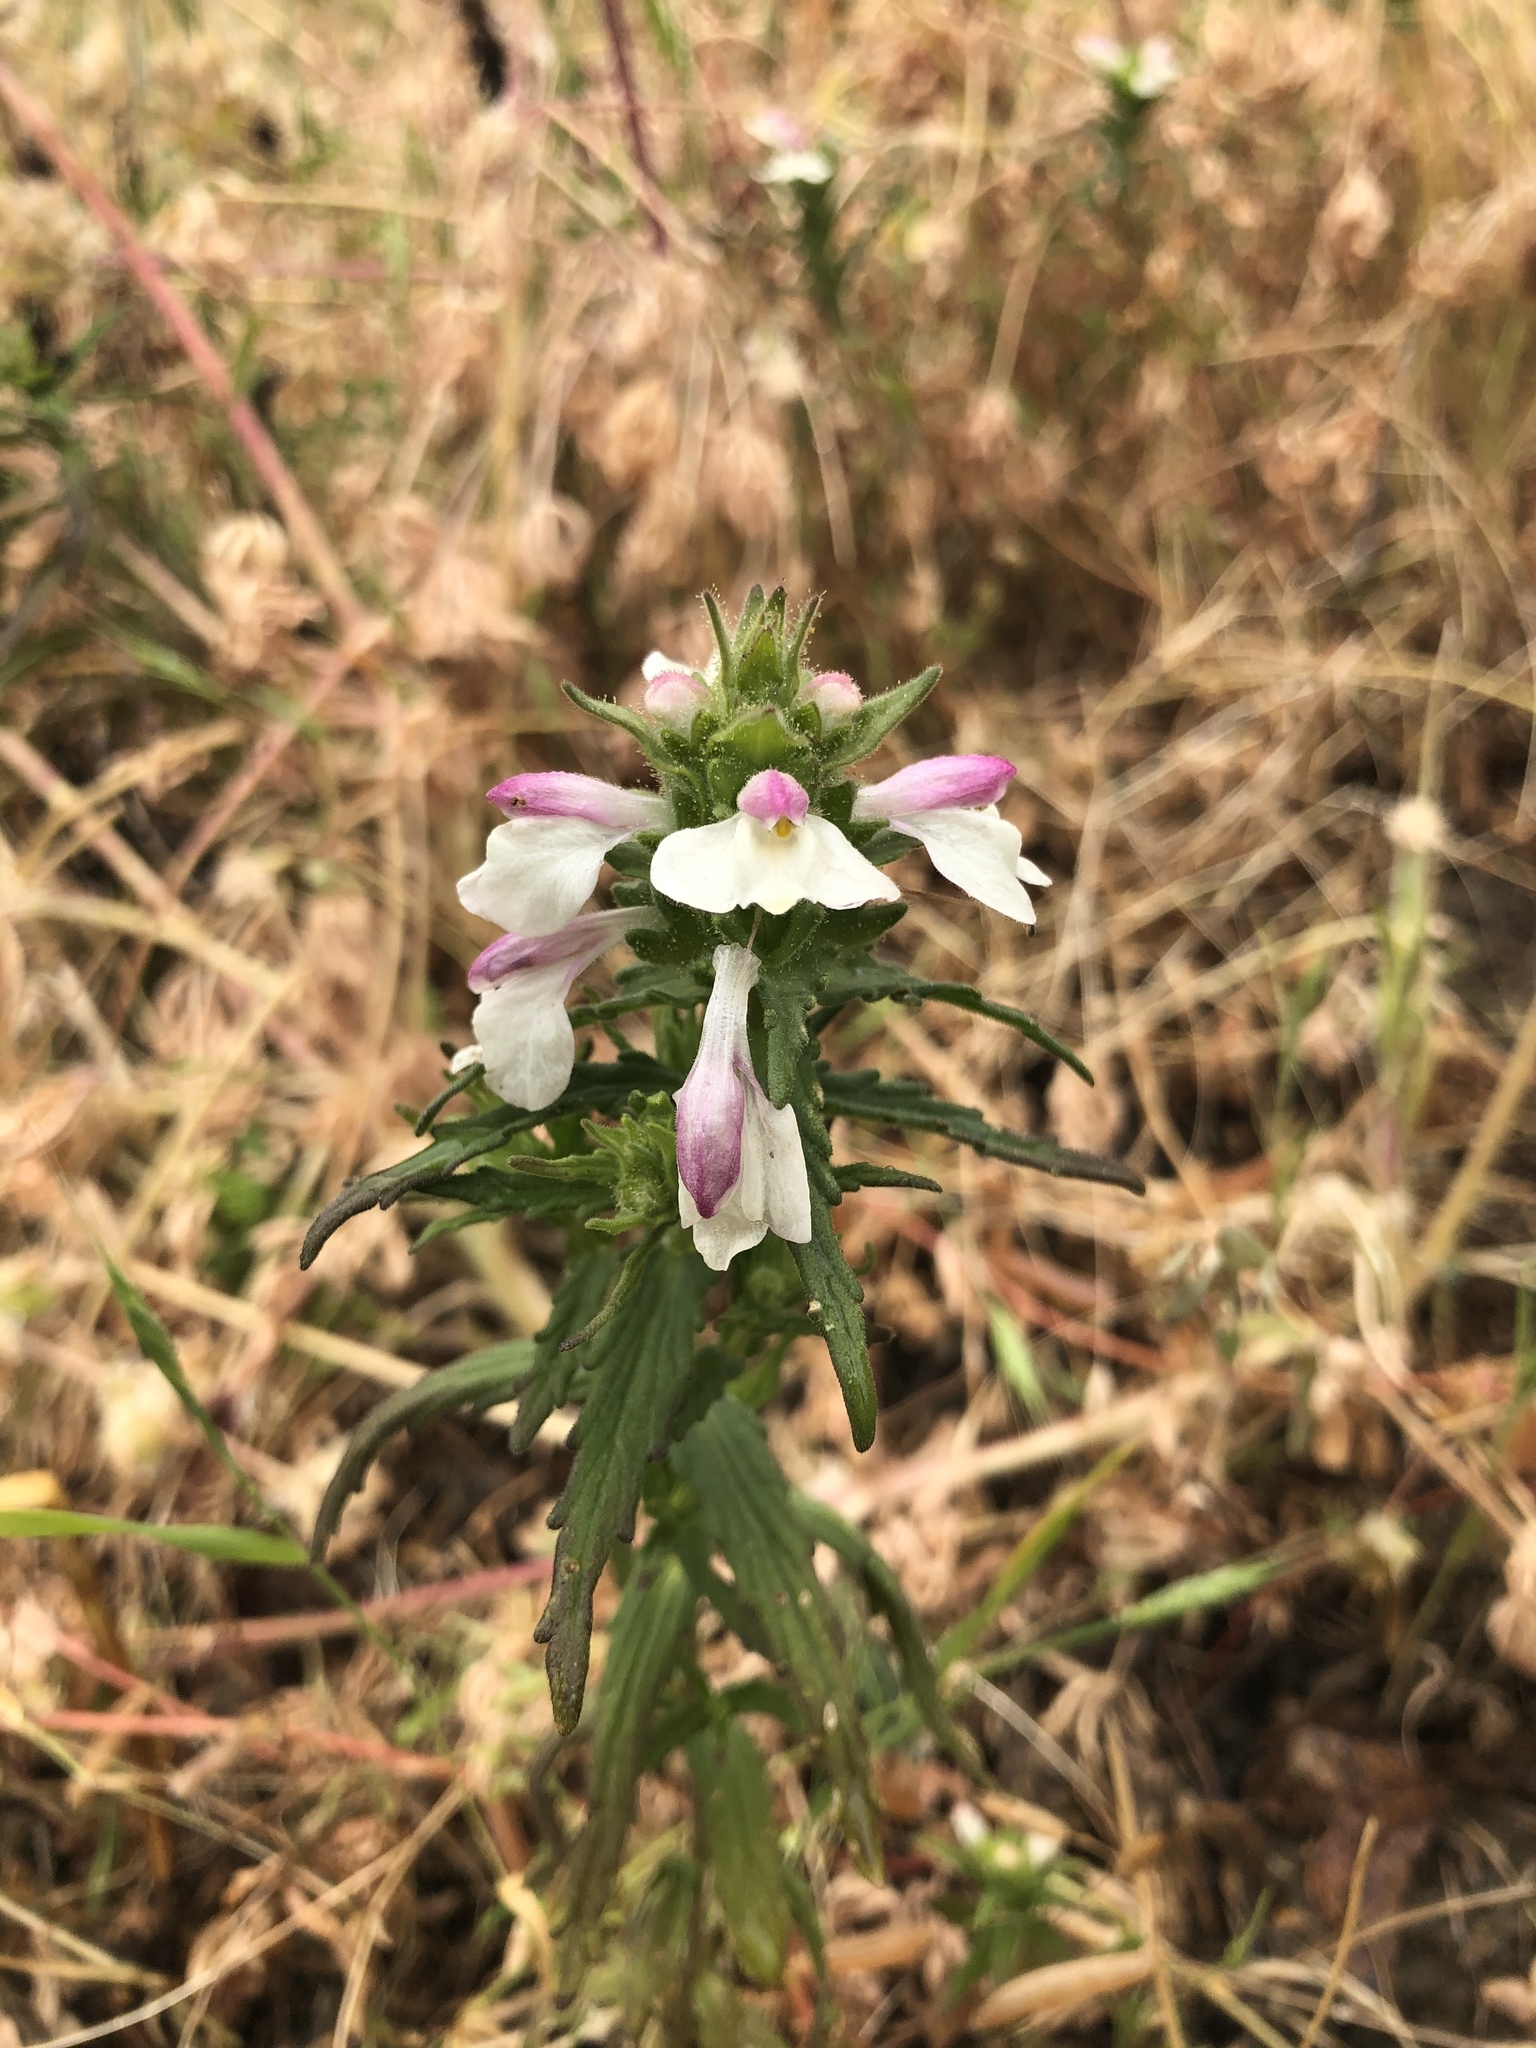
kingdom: Plantae
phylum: Tracheophyta
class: Magnoliopsida
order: Lamiales
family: Orobanchaceae
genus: Bellardia
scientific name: Bellardia trixago
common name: Mediterranean lineseed
